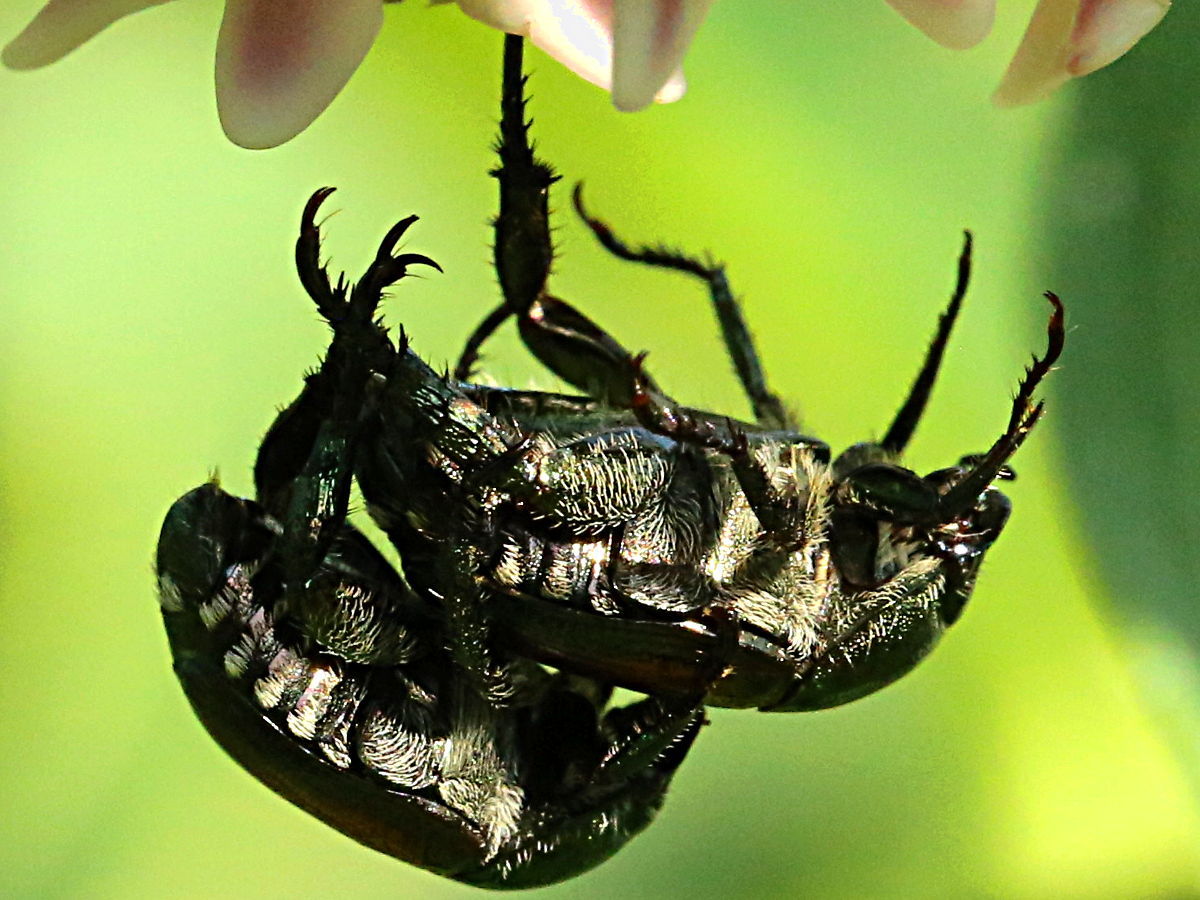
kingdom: Animalia
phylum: Arthropoda
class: Insecta
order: Coleoptera
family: Scarabaeidae
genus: Popillia
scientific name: Popillia japonica
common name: Japanese beetle
